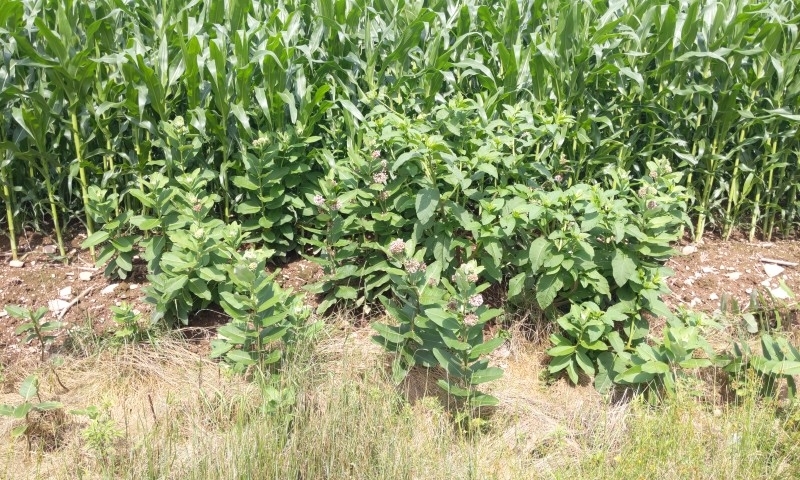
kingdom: Plantae
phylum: Tracheophyta
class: Magnoliopsida
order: Gentianales
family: Apocynaceae
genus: Asclepias
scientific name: Asclepias syriaca
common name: Common milkweed
